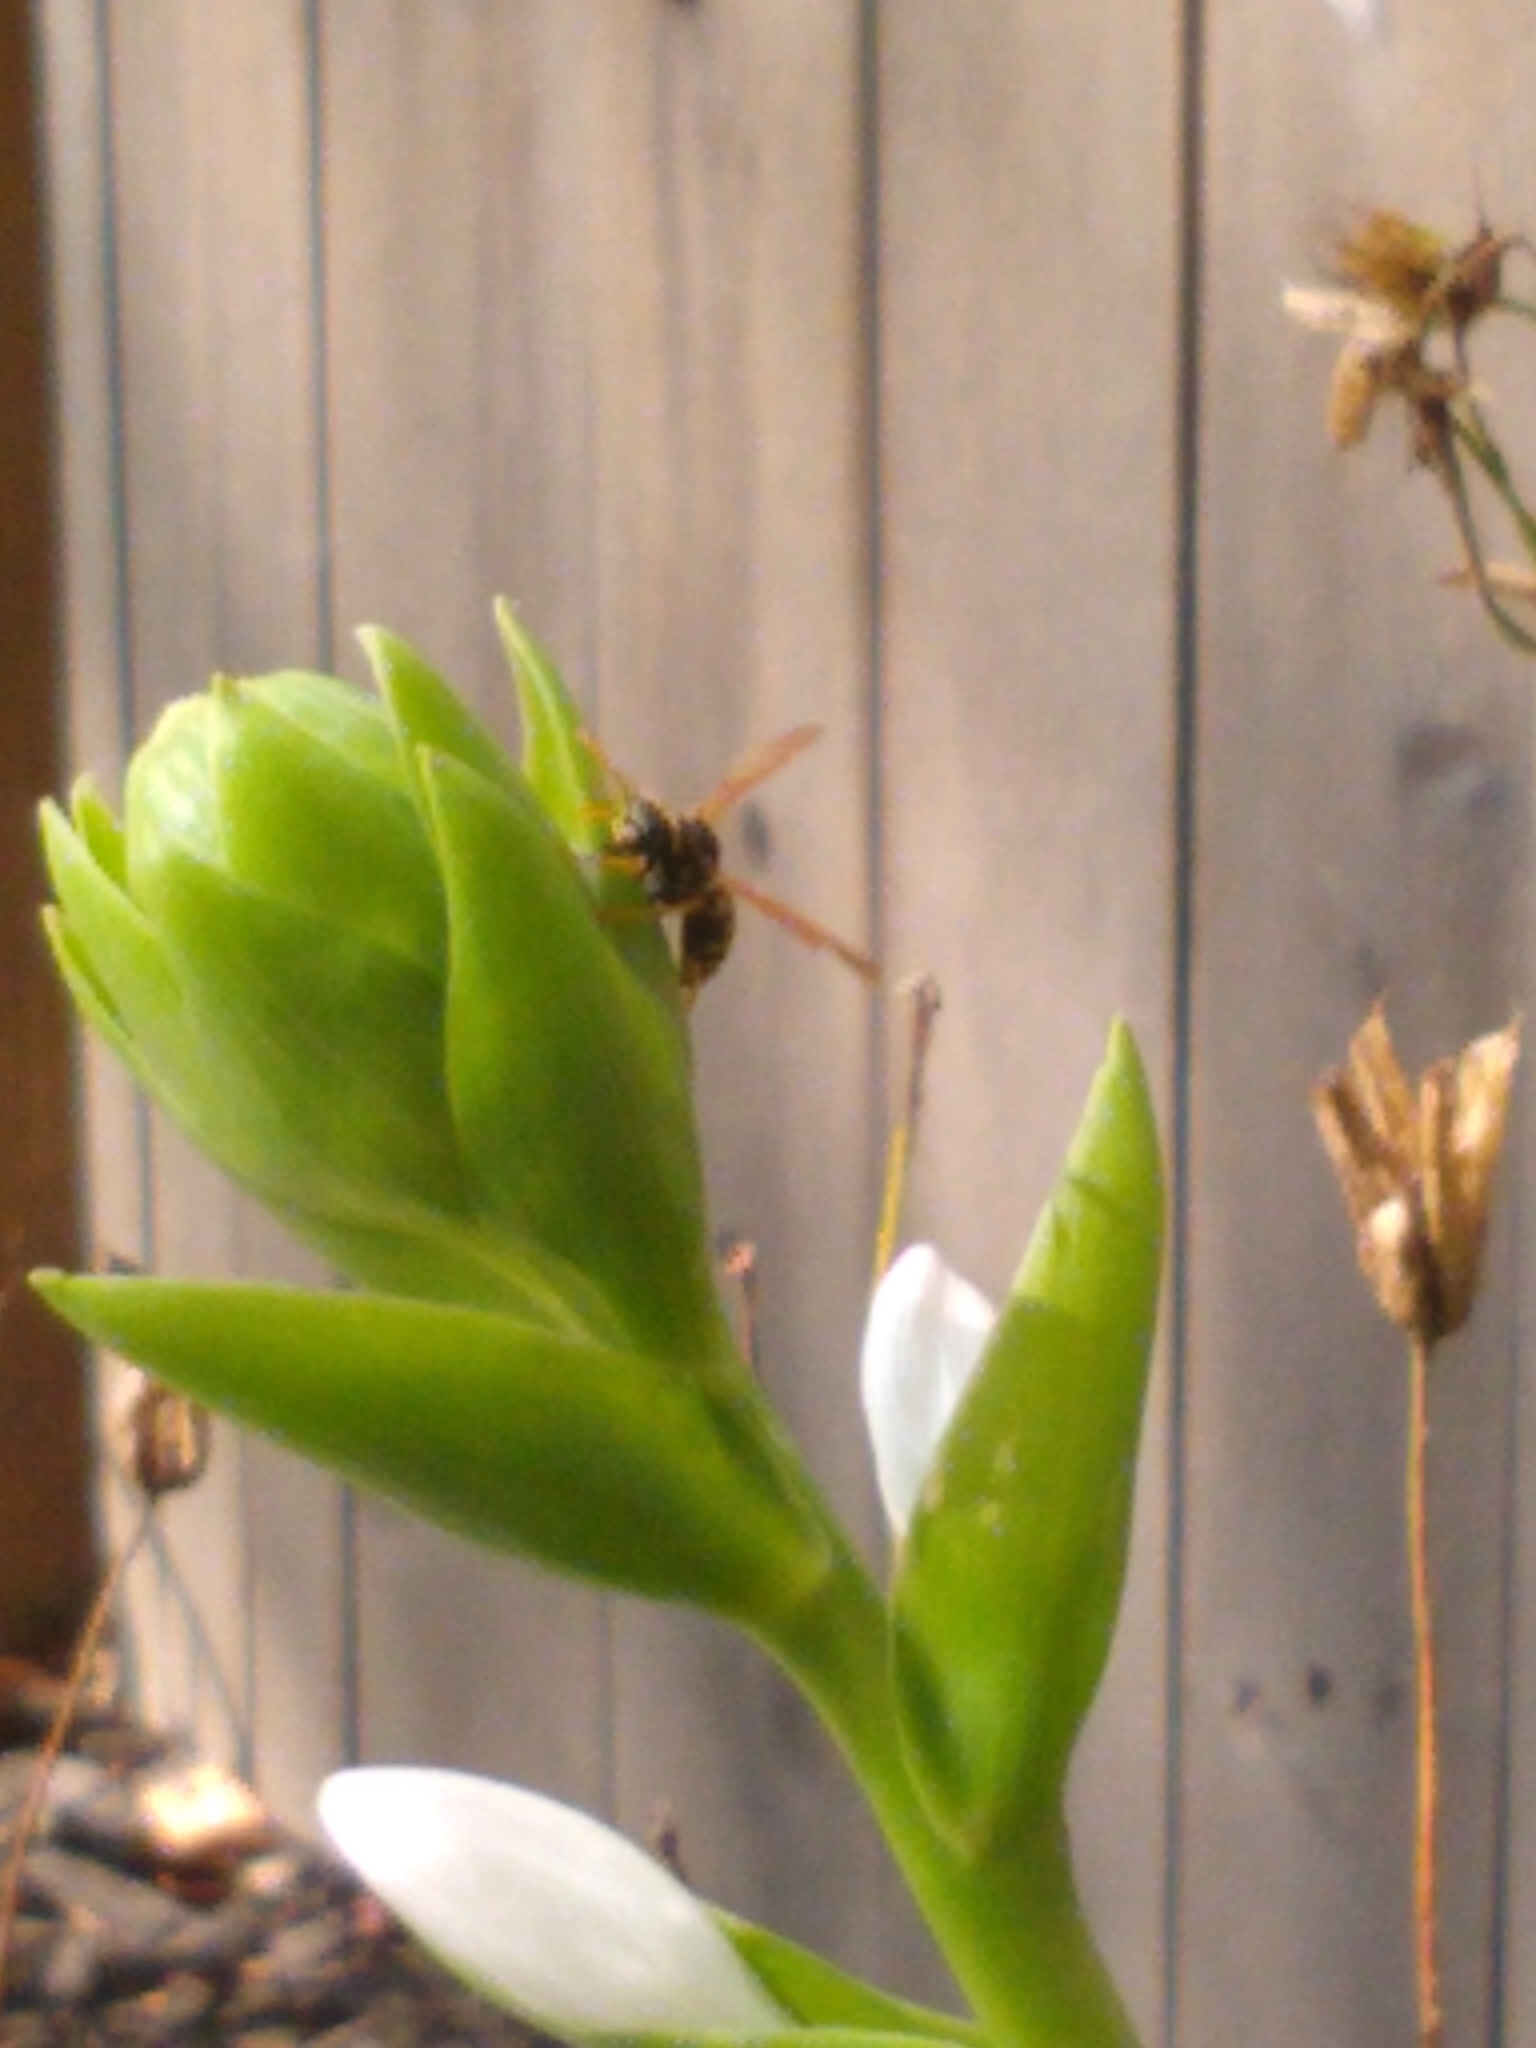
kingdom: Animalia
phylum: Arthropoda
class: Insecta
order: Hymenoptera
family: Eumenidae
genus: Polistes
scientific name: Polistes dominula
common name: Paper wasp
